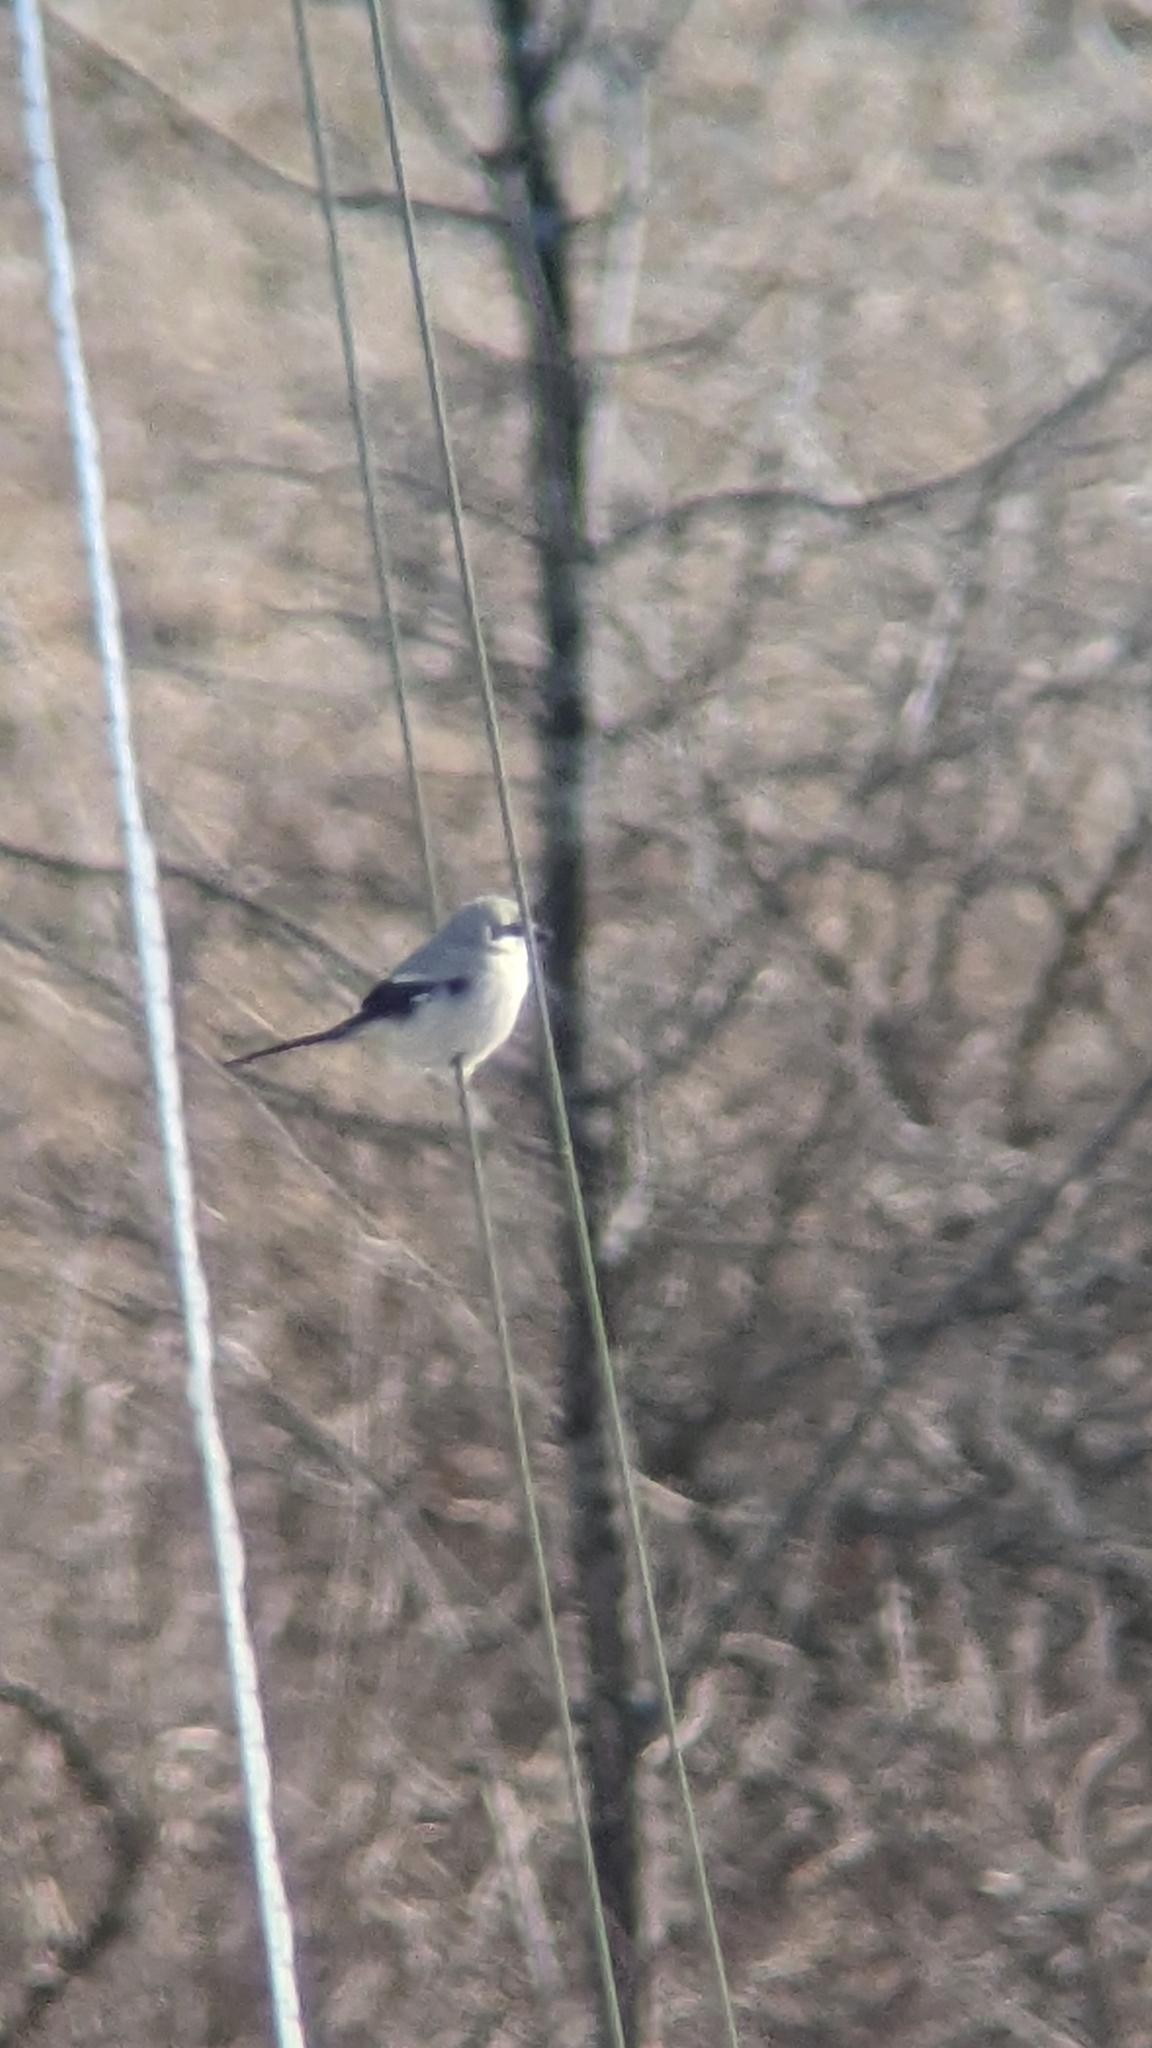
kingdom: Animalia
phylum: Chordata
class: Aves
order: Passeriformes
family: Laniidae
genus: Lanius
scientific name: Lanius borealis
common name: Northern shrike
